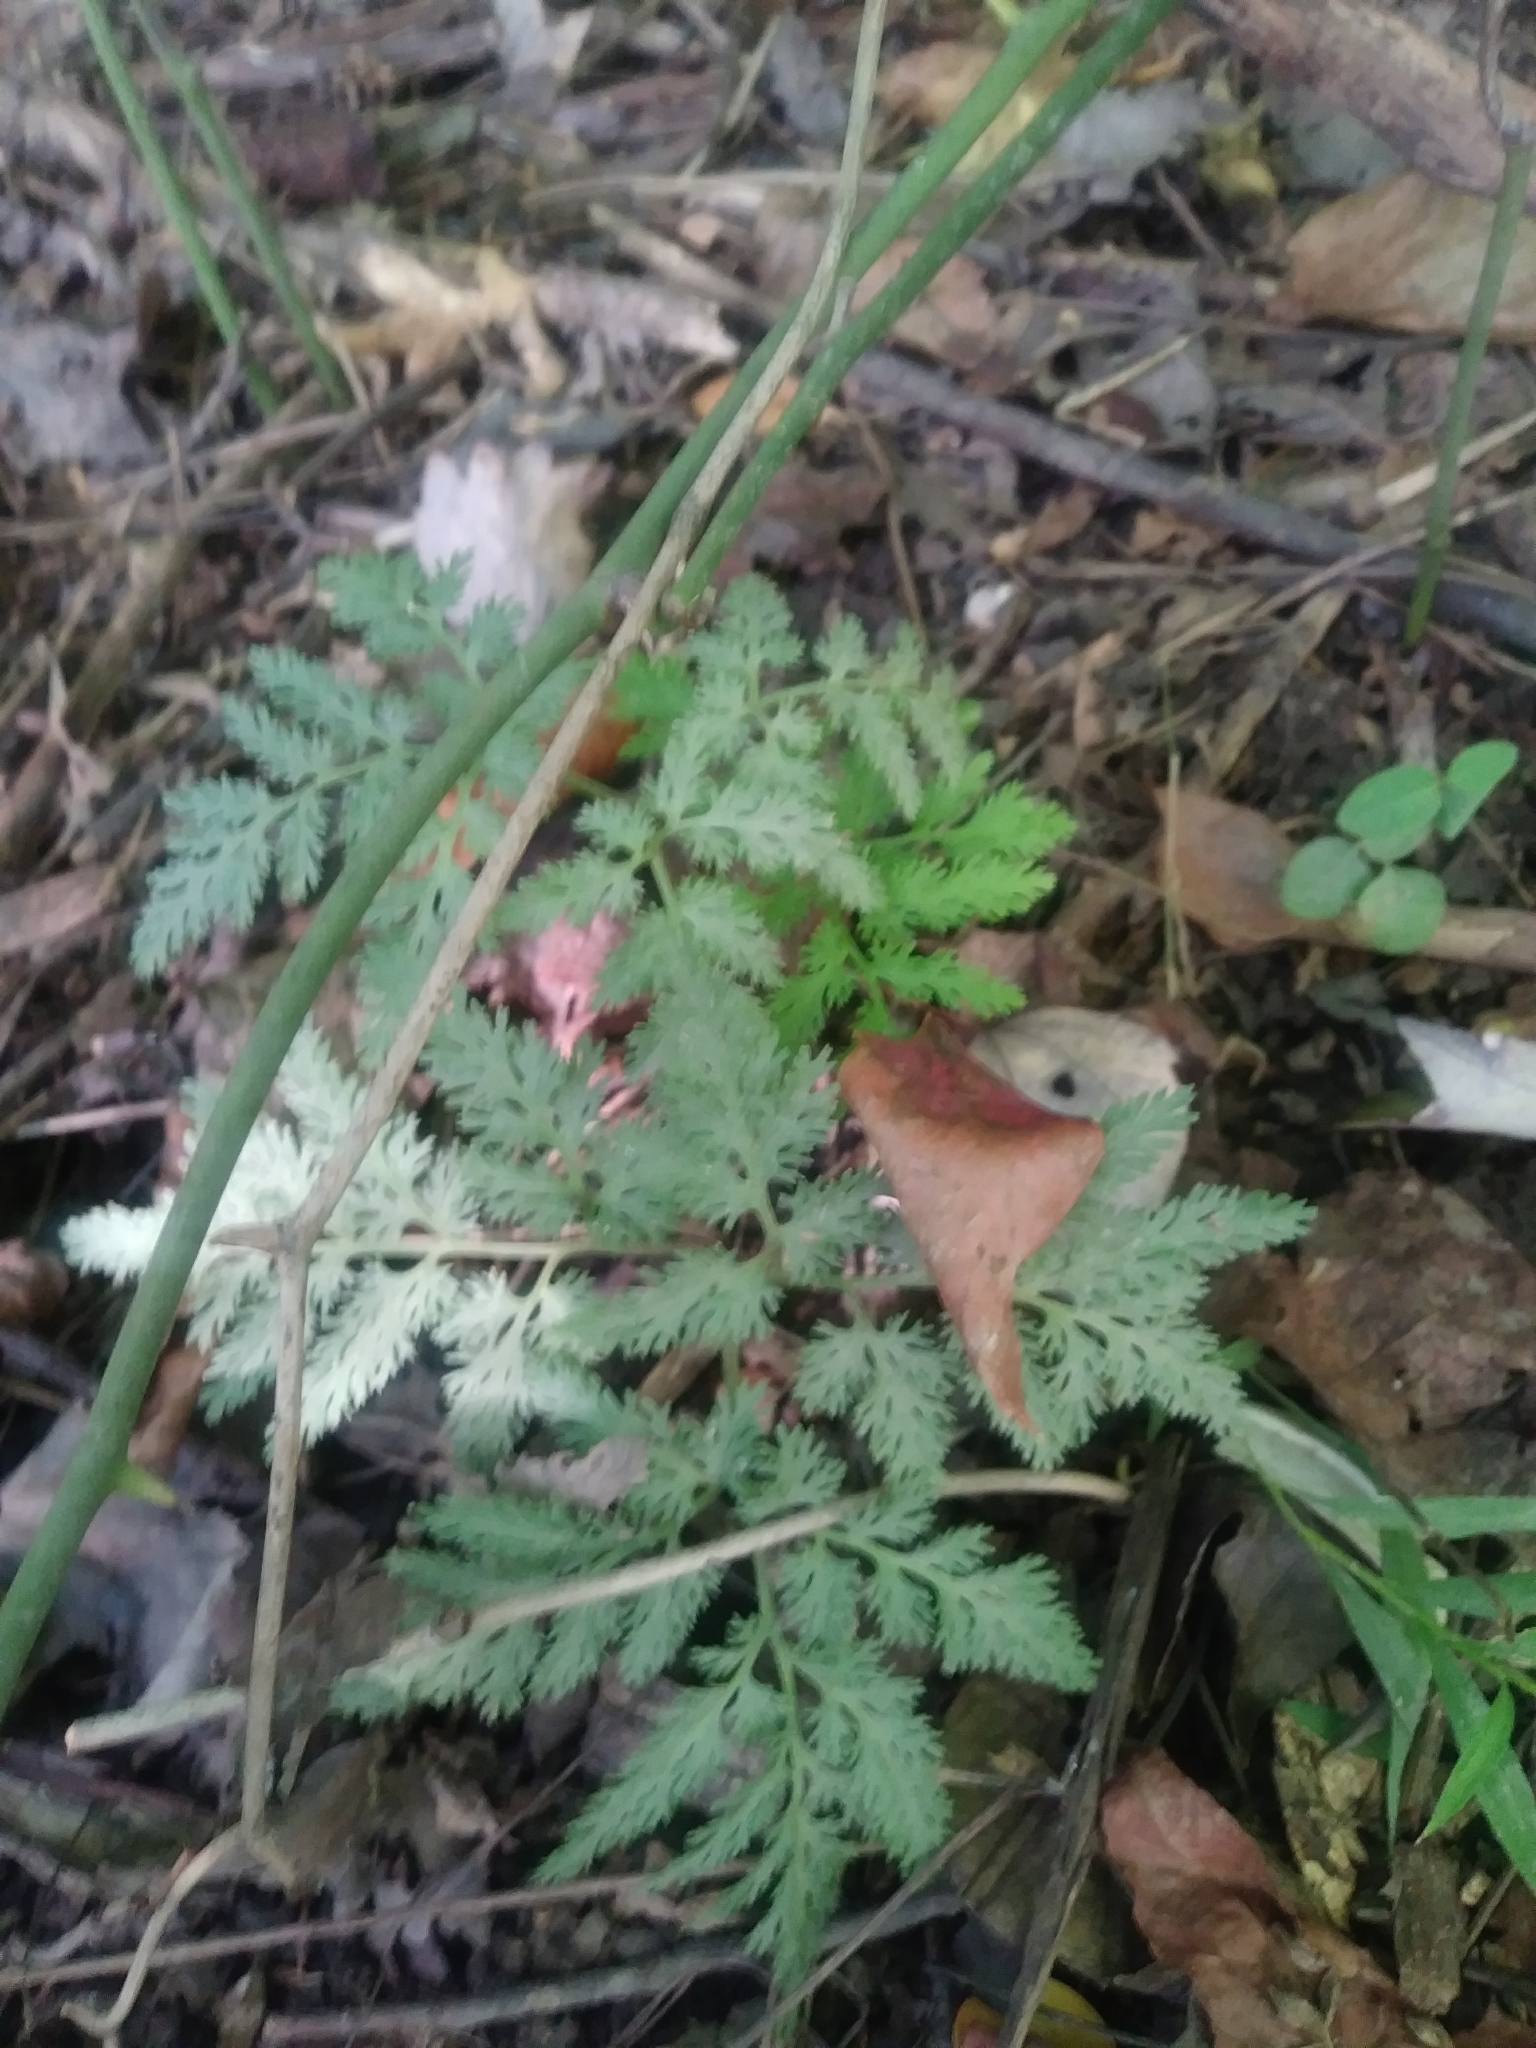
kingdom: Plantae
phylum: Tracheophyta
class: Polypodiopsida
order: Ophioglossales
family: Ophioglossaceae
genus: Sceptridium
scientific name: Sceptridium dissectum
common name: Cut-leaved grapefern
